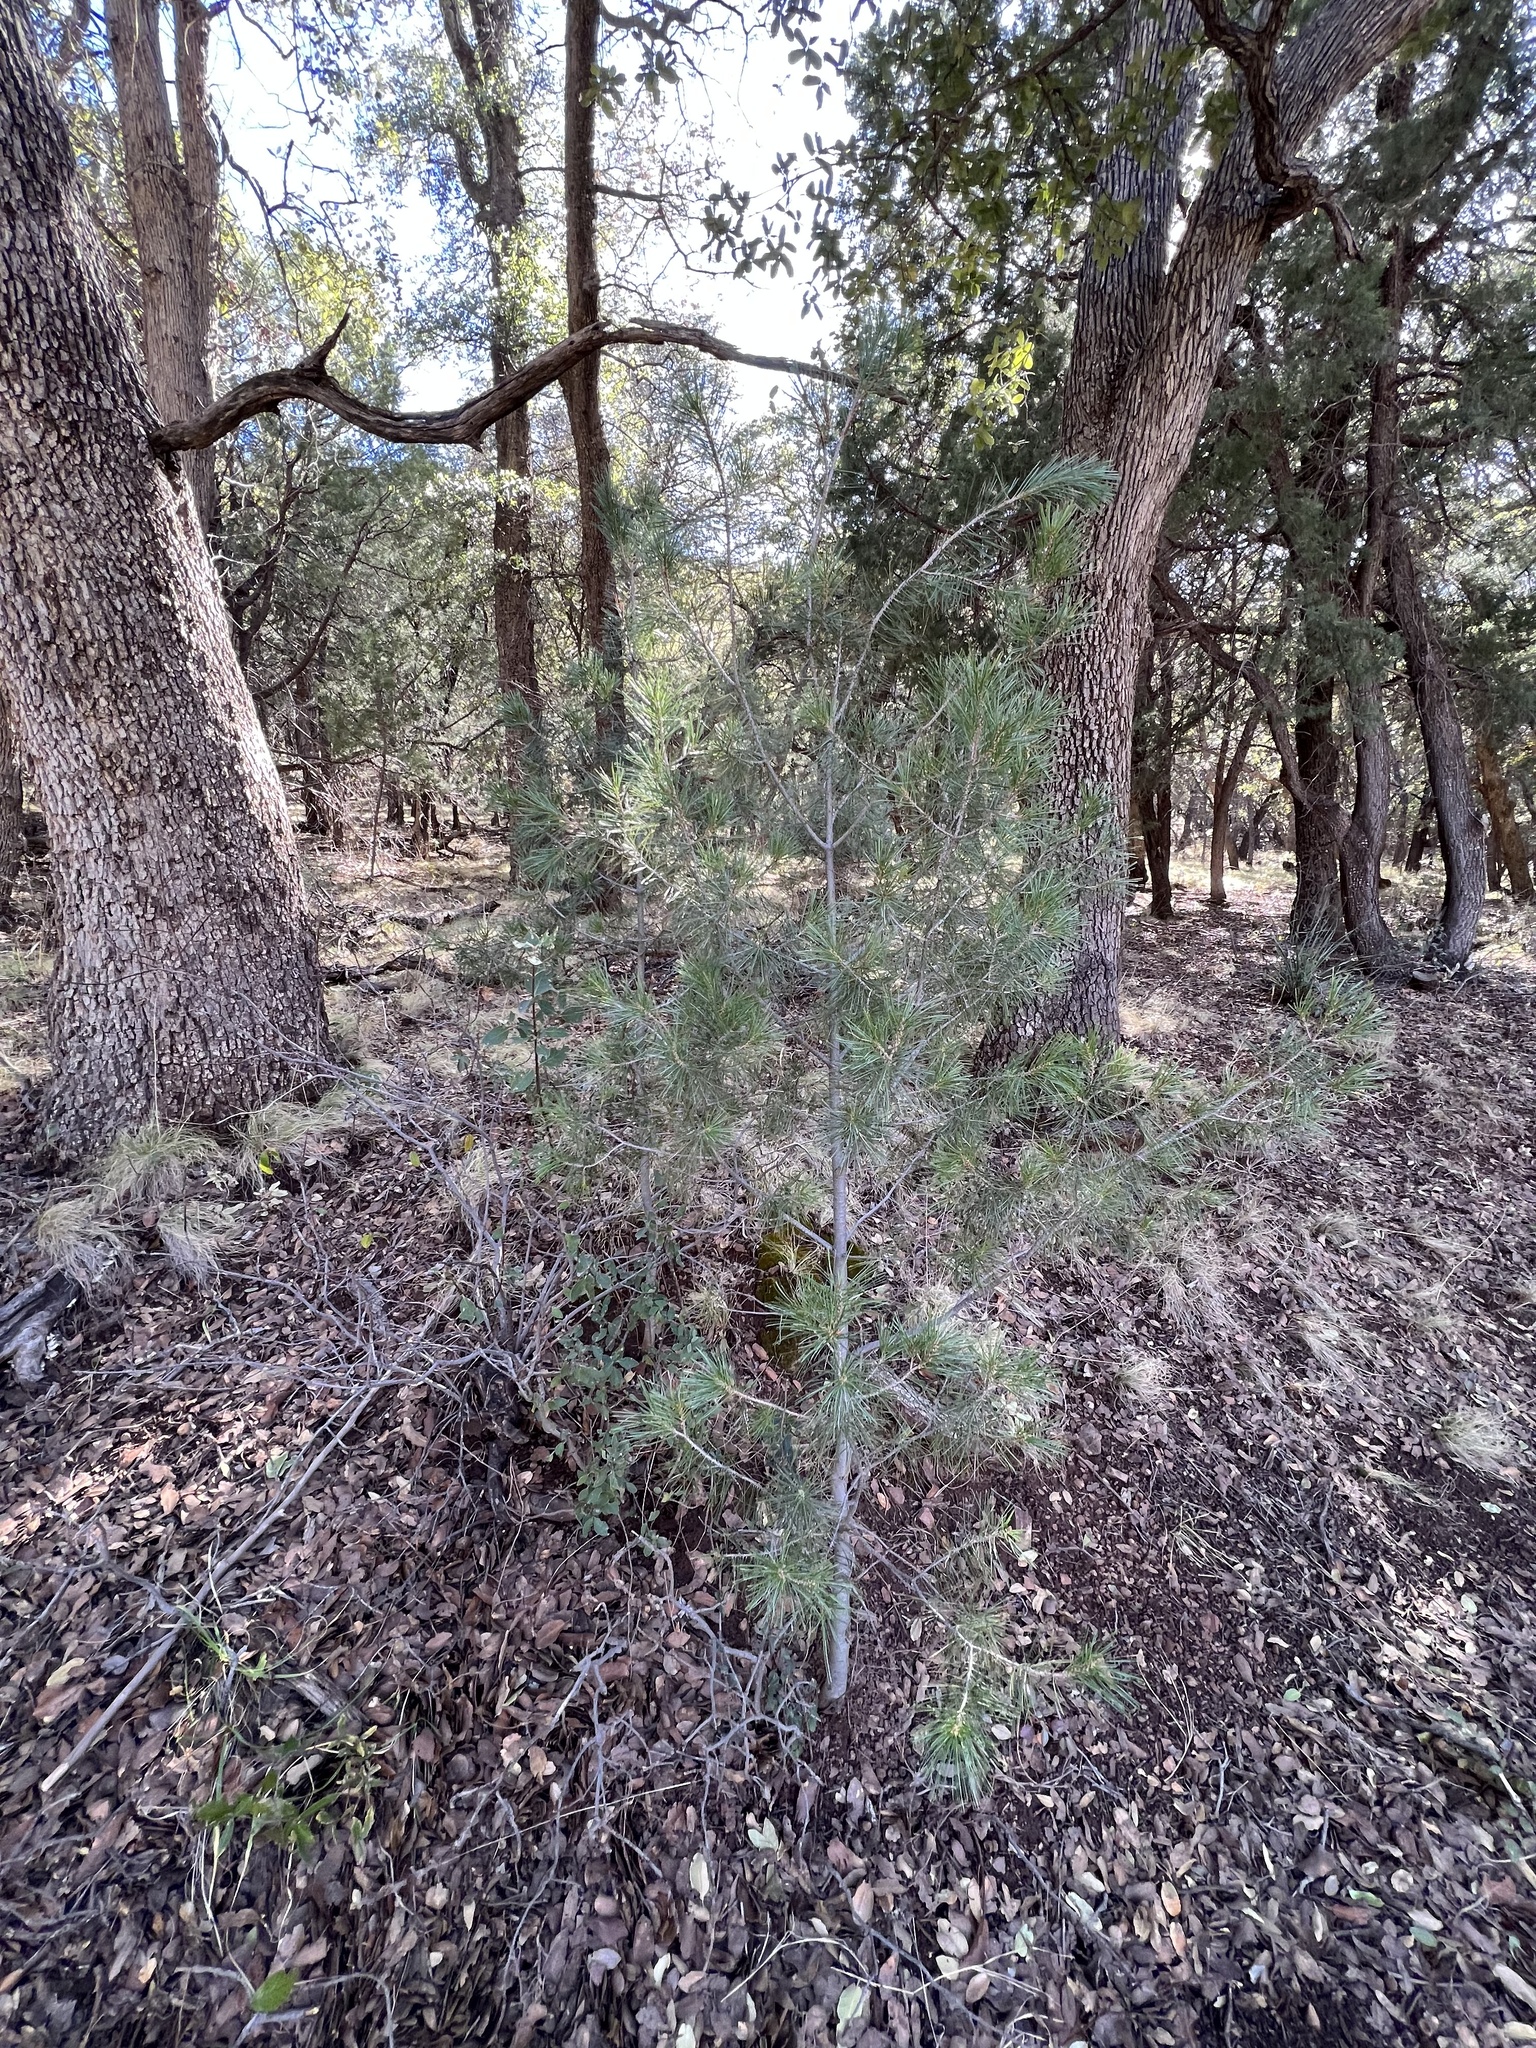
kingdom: Plantae
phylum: Tracheophyta
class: Pinopsida
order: Pinales
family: Pinaceae
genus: Pinus
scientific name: Pinus discolor
